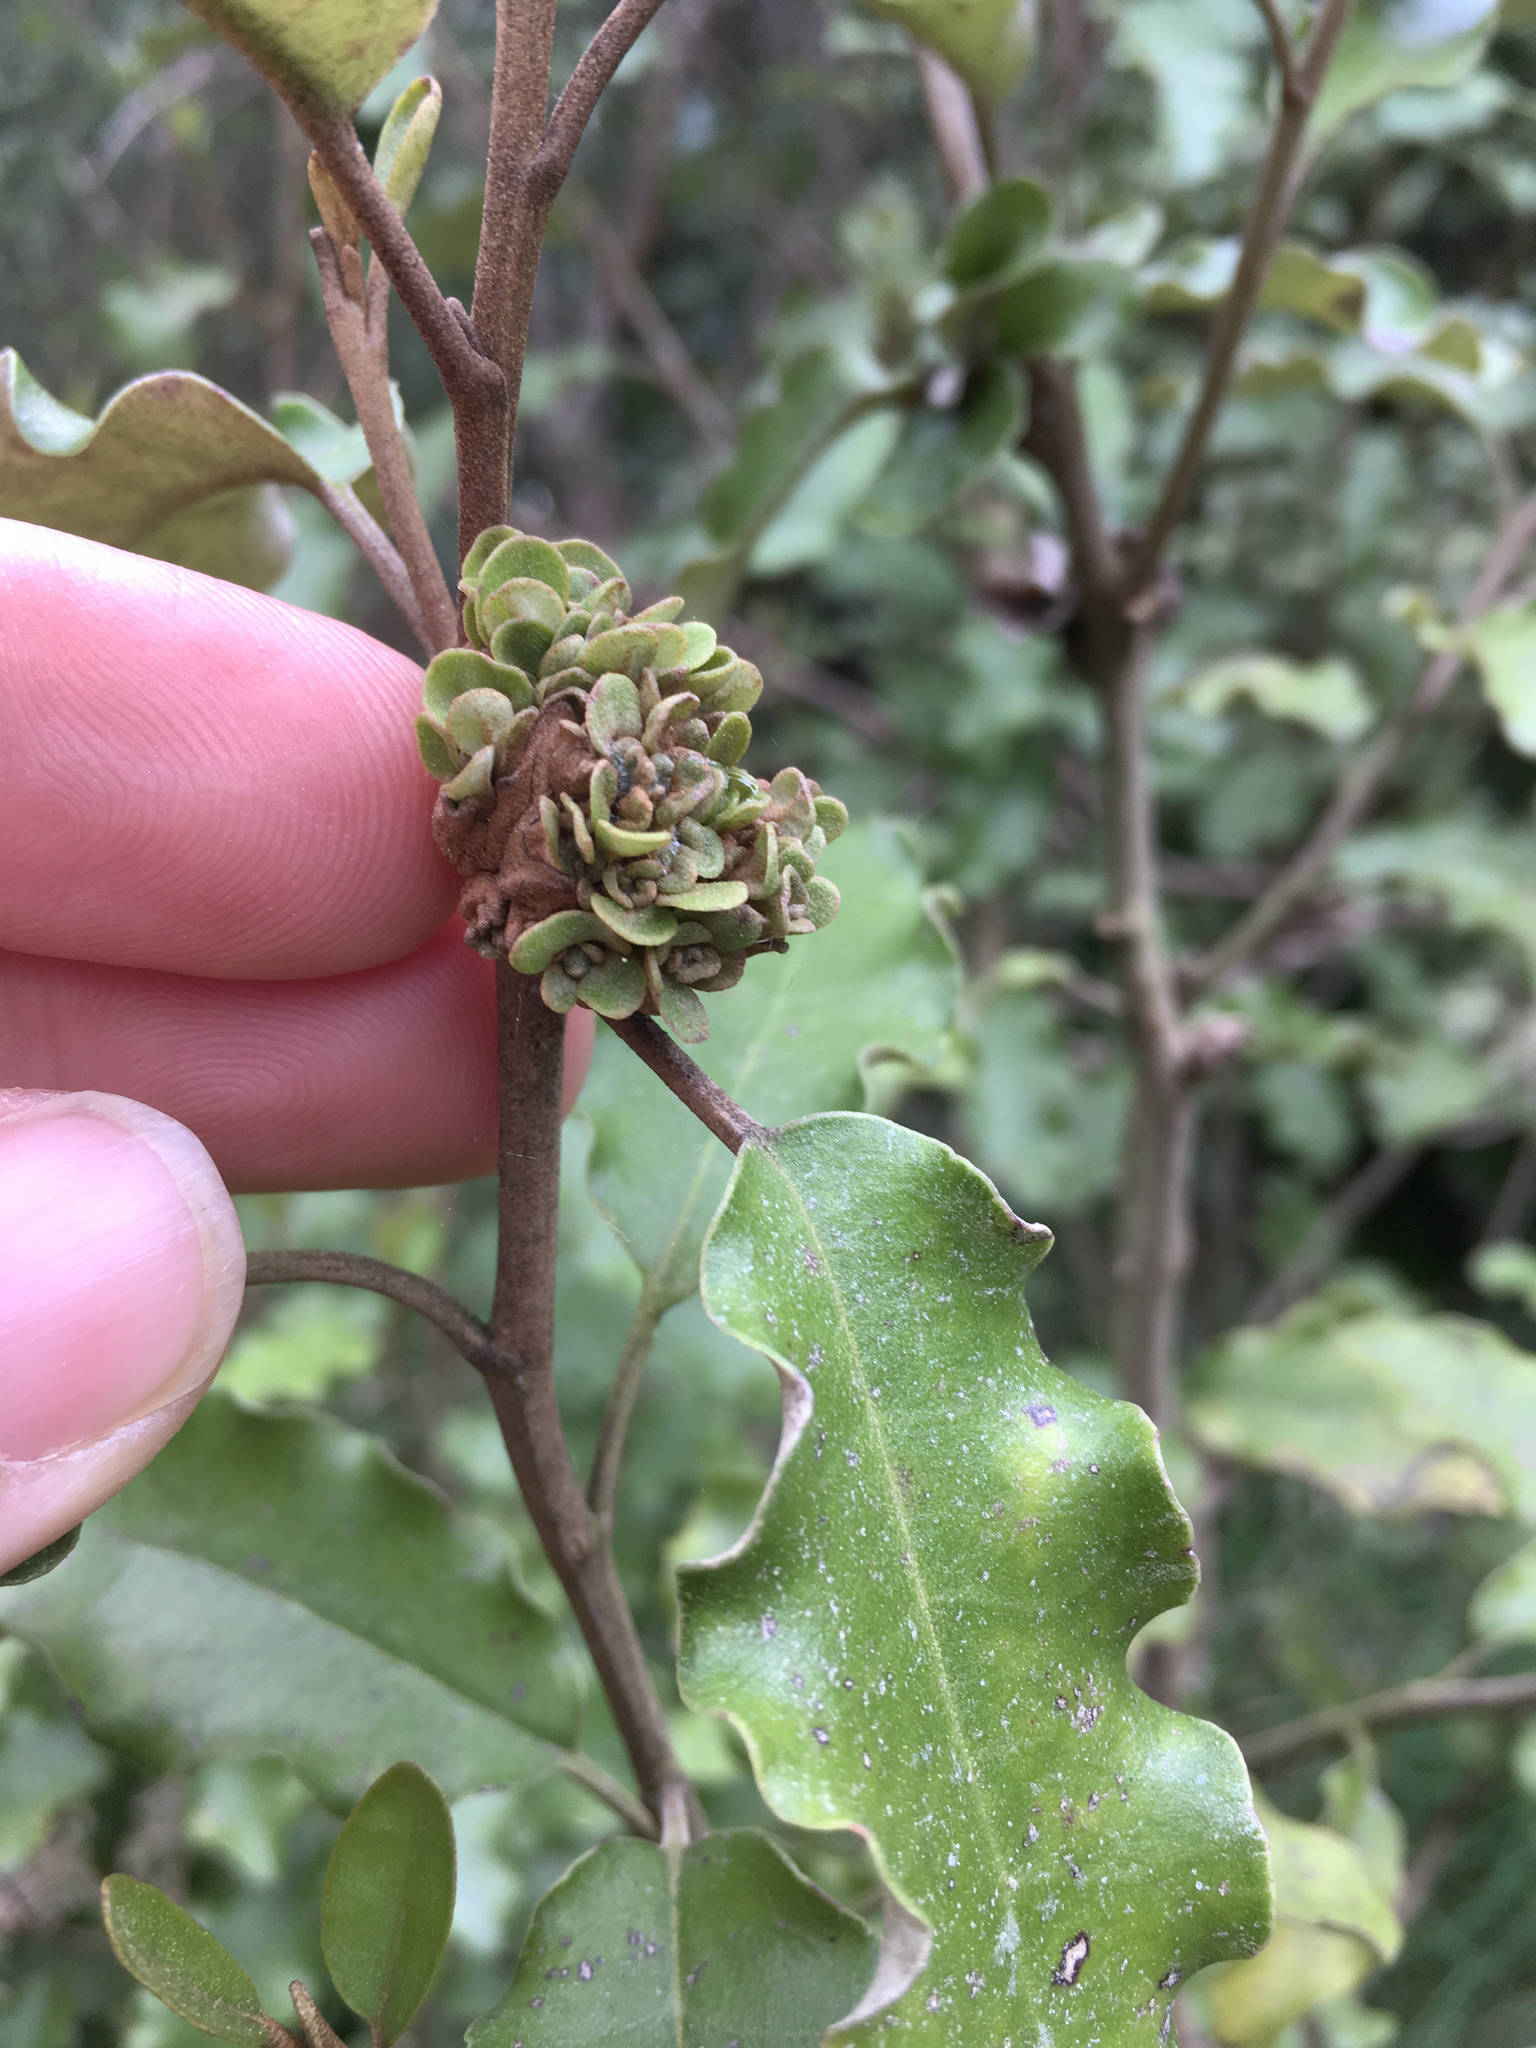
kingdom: Animalia
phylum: Arthropoda
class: Insecta
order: Diptera
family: Cecidomyiidae
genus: Oligotrophus
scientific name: Oligotrophus
